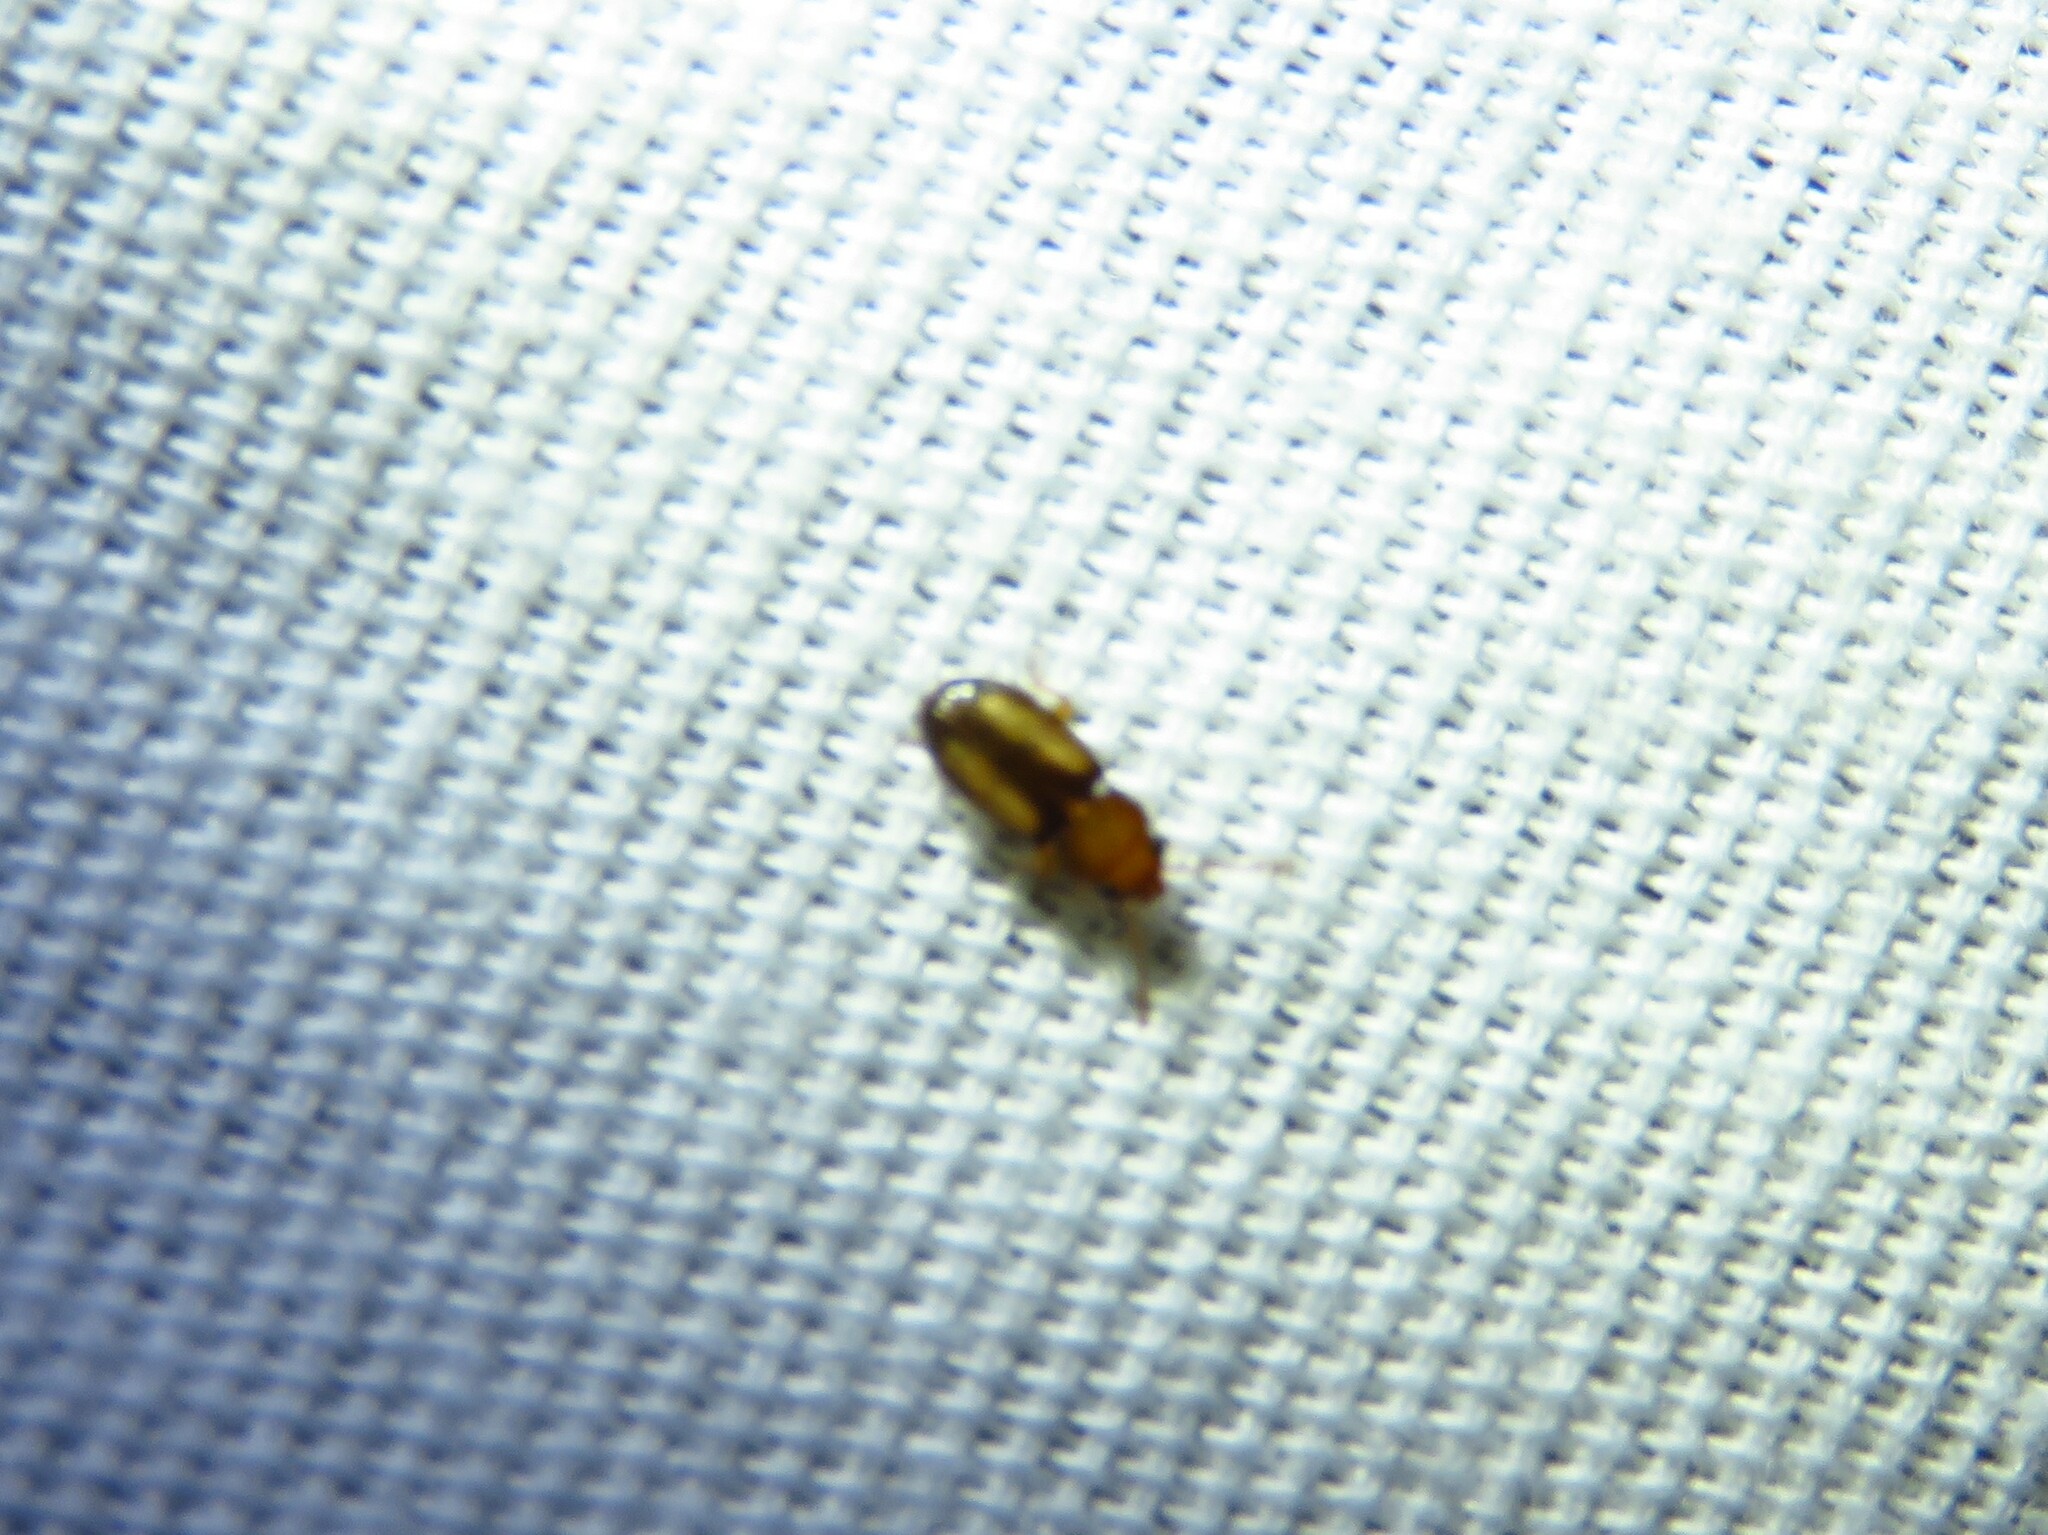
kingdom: Animalia
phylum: Arthropoda
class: Insecta
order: Coleoptera
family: Laemophloeidae
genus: Laemophloeus
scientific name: Laemophloeus terminalis
